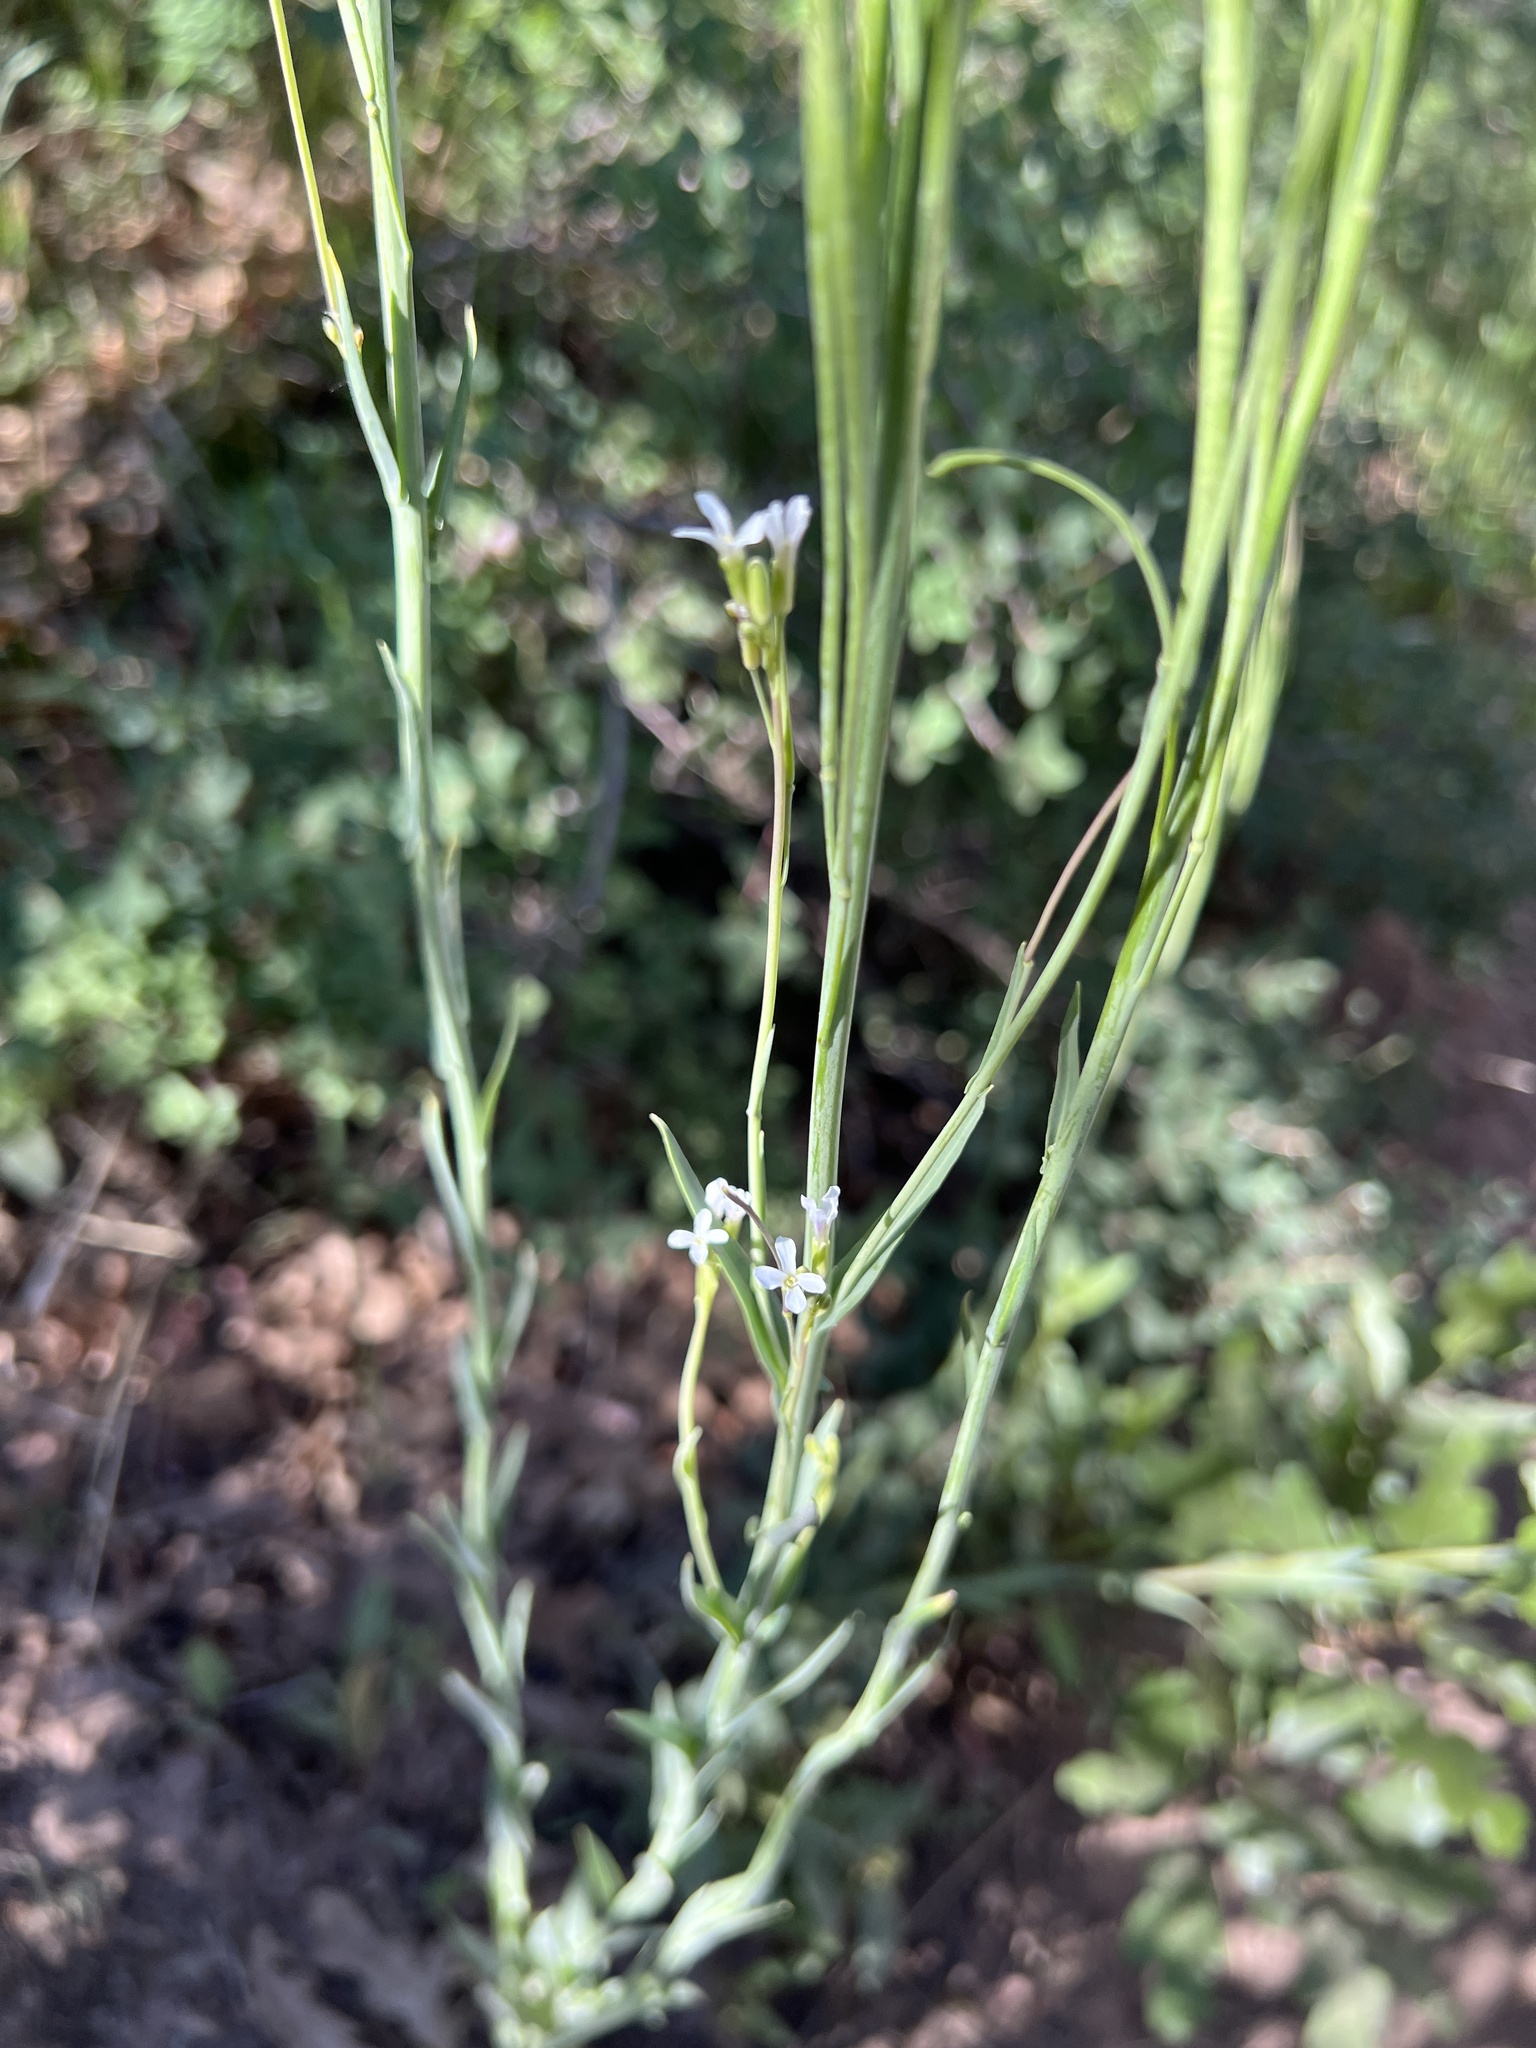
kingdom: Plantae
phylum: Tracheophyta
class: Magnoliopsida
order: Brassicales
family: Brassicaceae
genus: Boechera
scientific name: Boechera stricta
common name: Canadian rockcress
